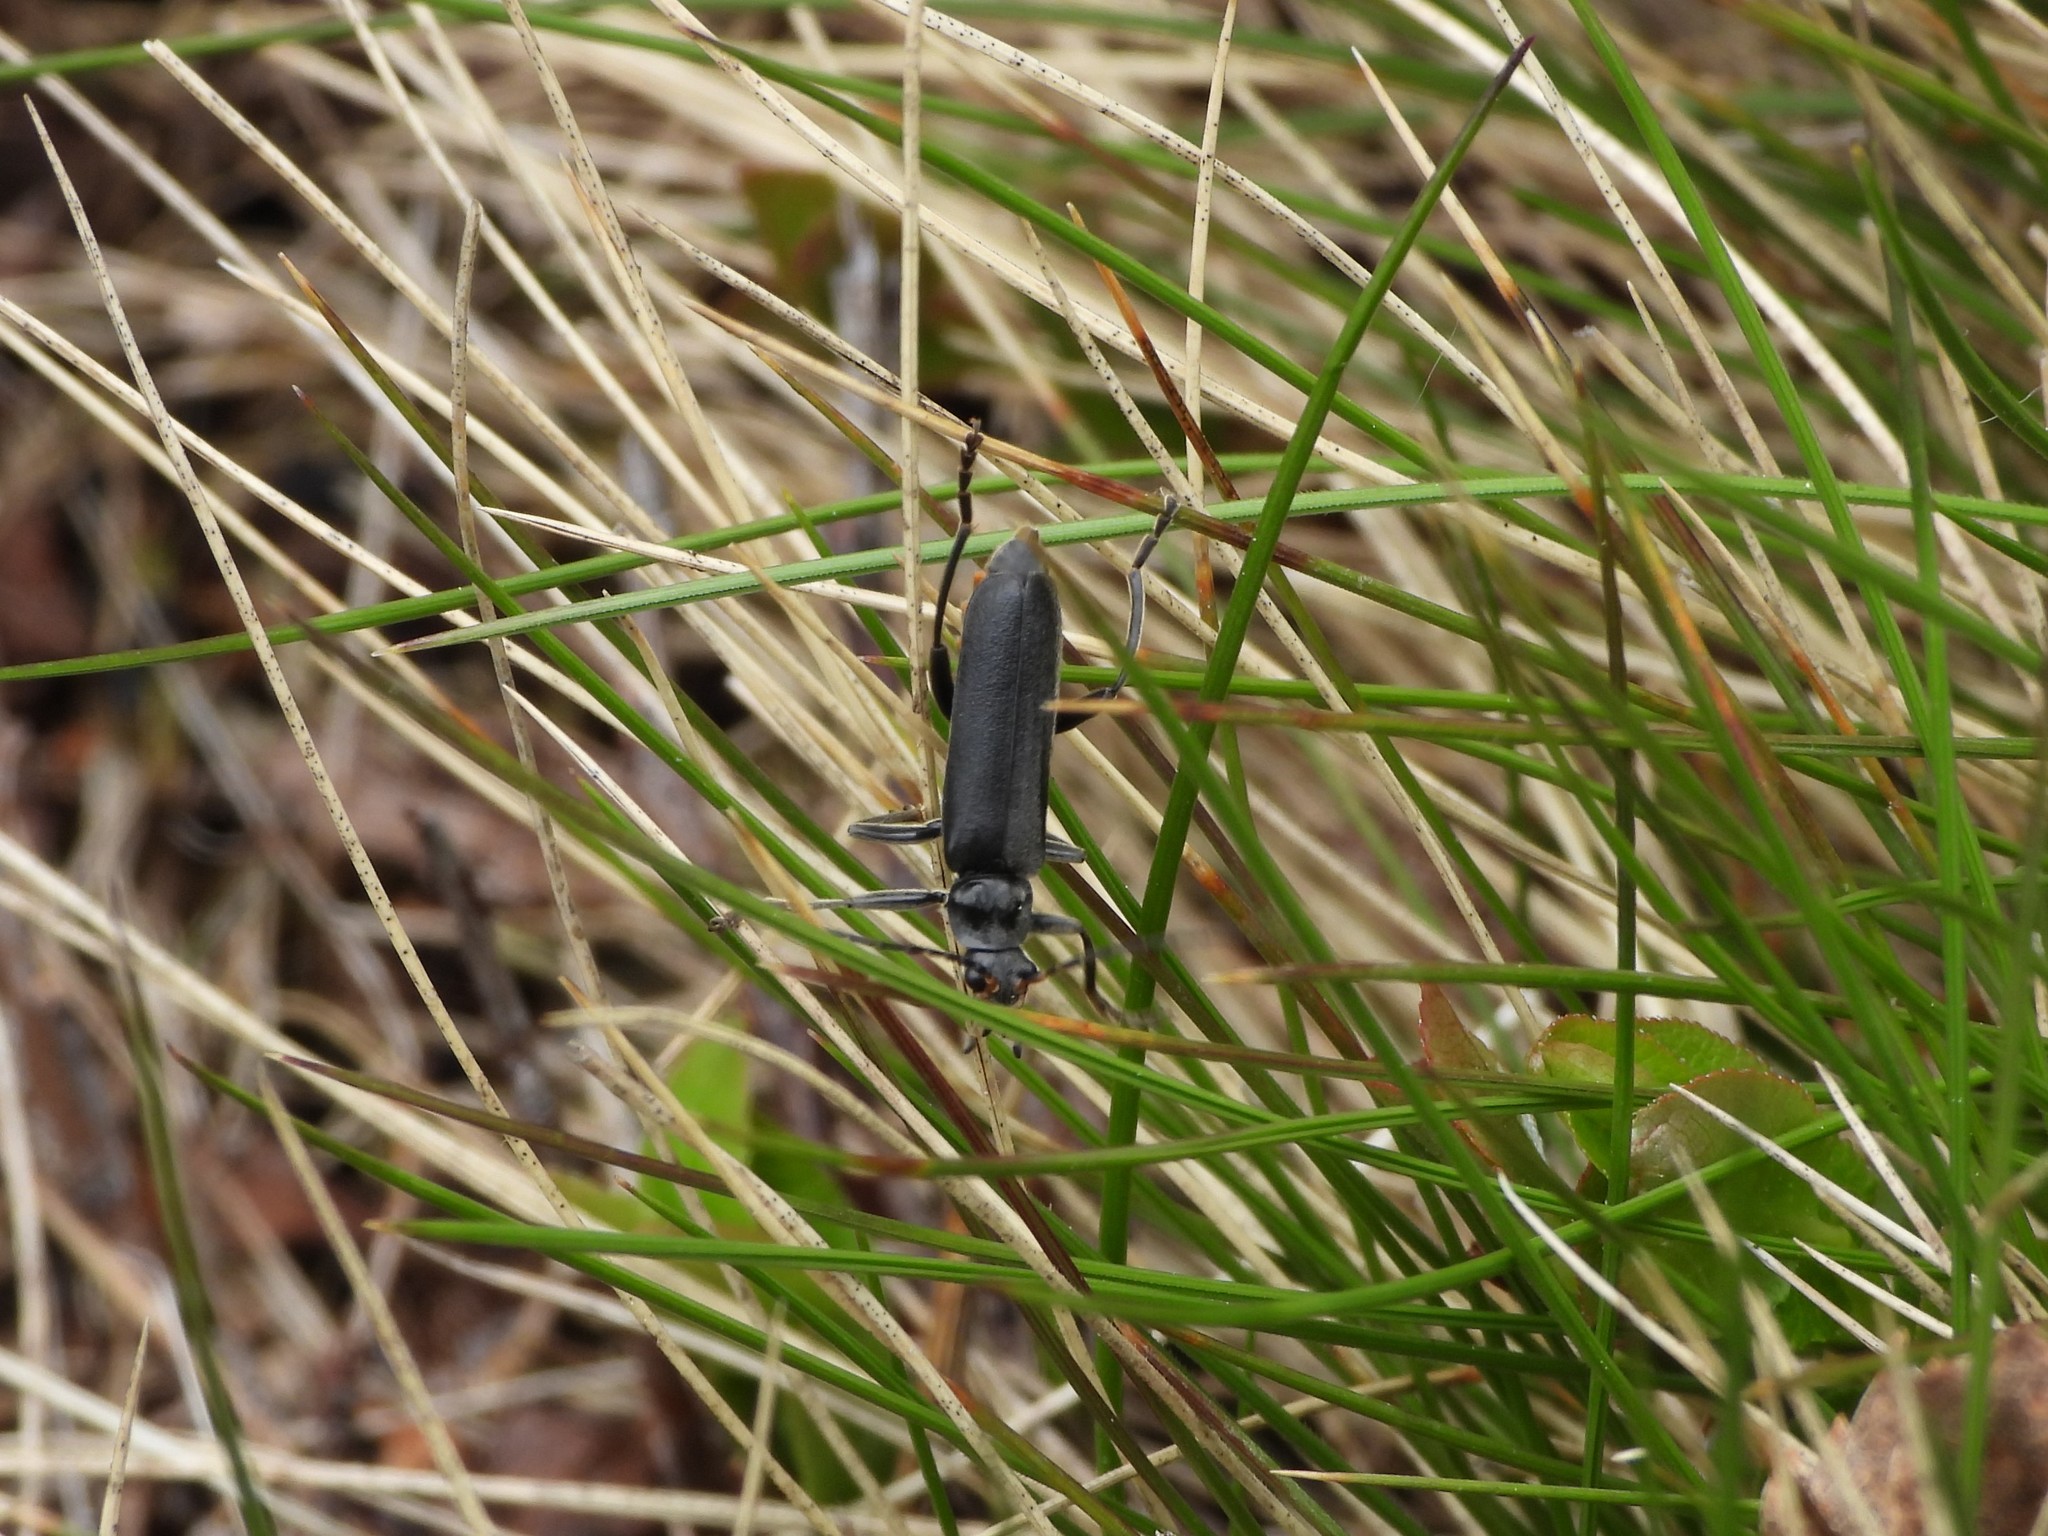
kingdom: Animalia
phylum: Arthropoda
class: Insecta
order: Coleoptera
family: Cantharidae
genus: Cantharis
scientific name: Cantharis tristis
